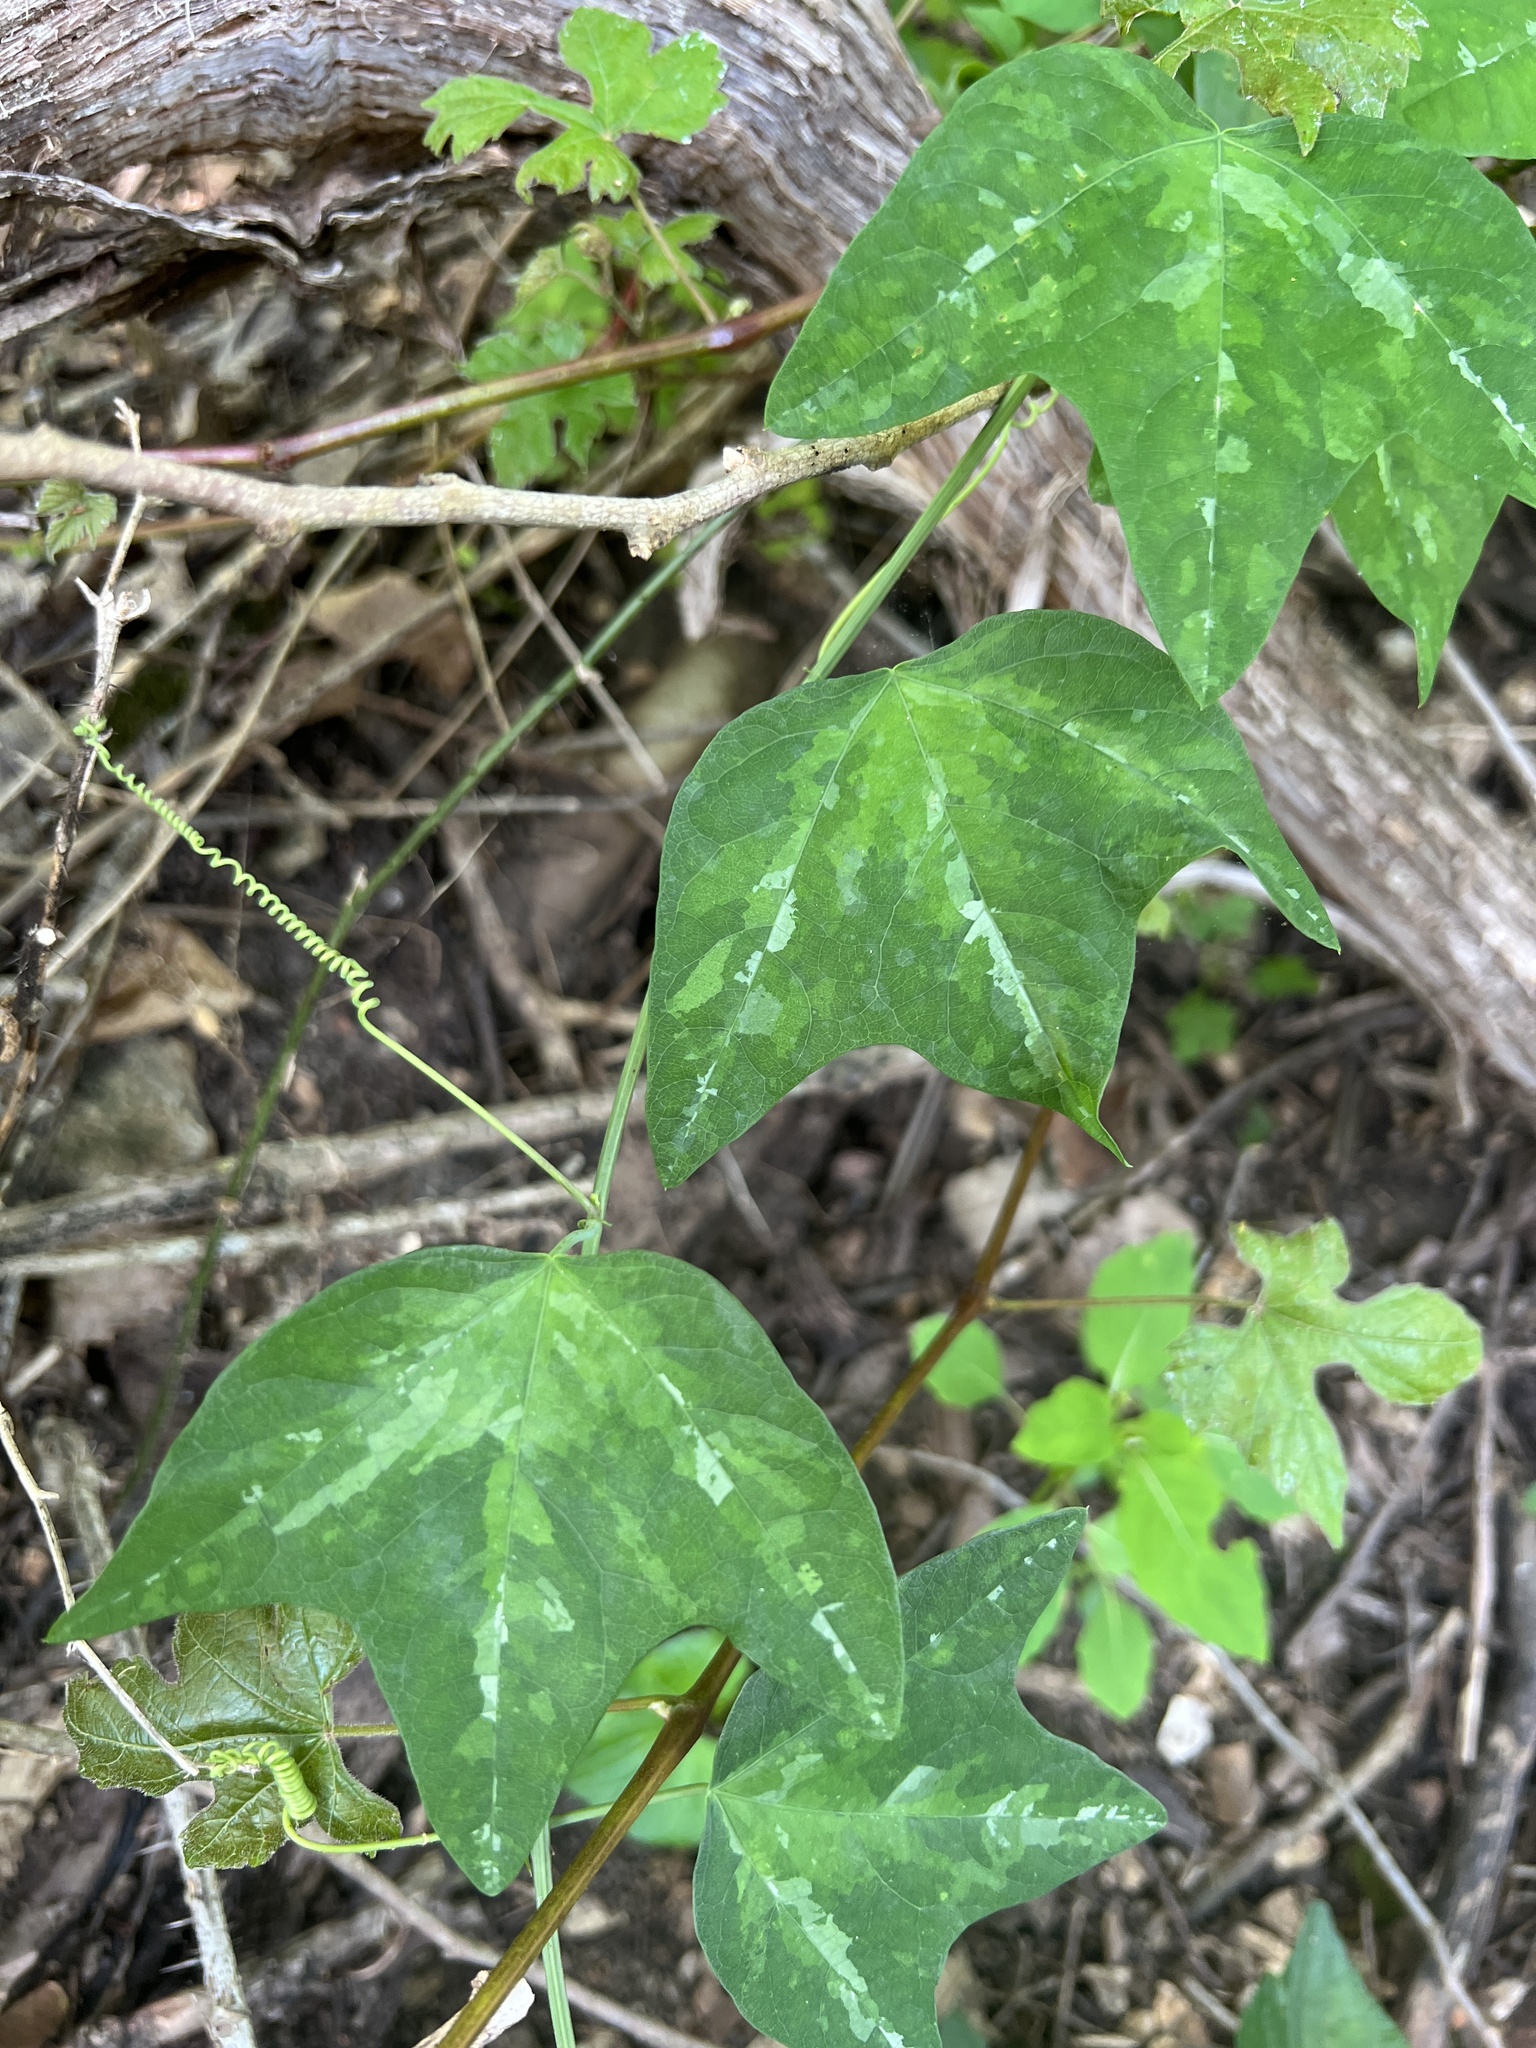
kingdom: Plantae
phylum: Tracheophyta
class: Magnoliopsida
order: Malpighiales
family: Passifloraceae
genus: Passiflora
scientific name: Passiflora lutea
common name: Yellow passionflower
